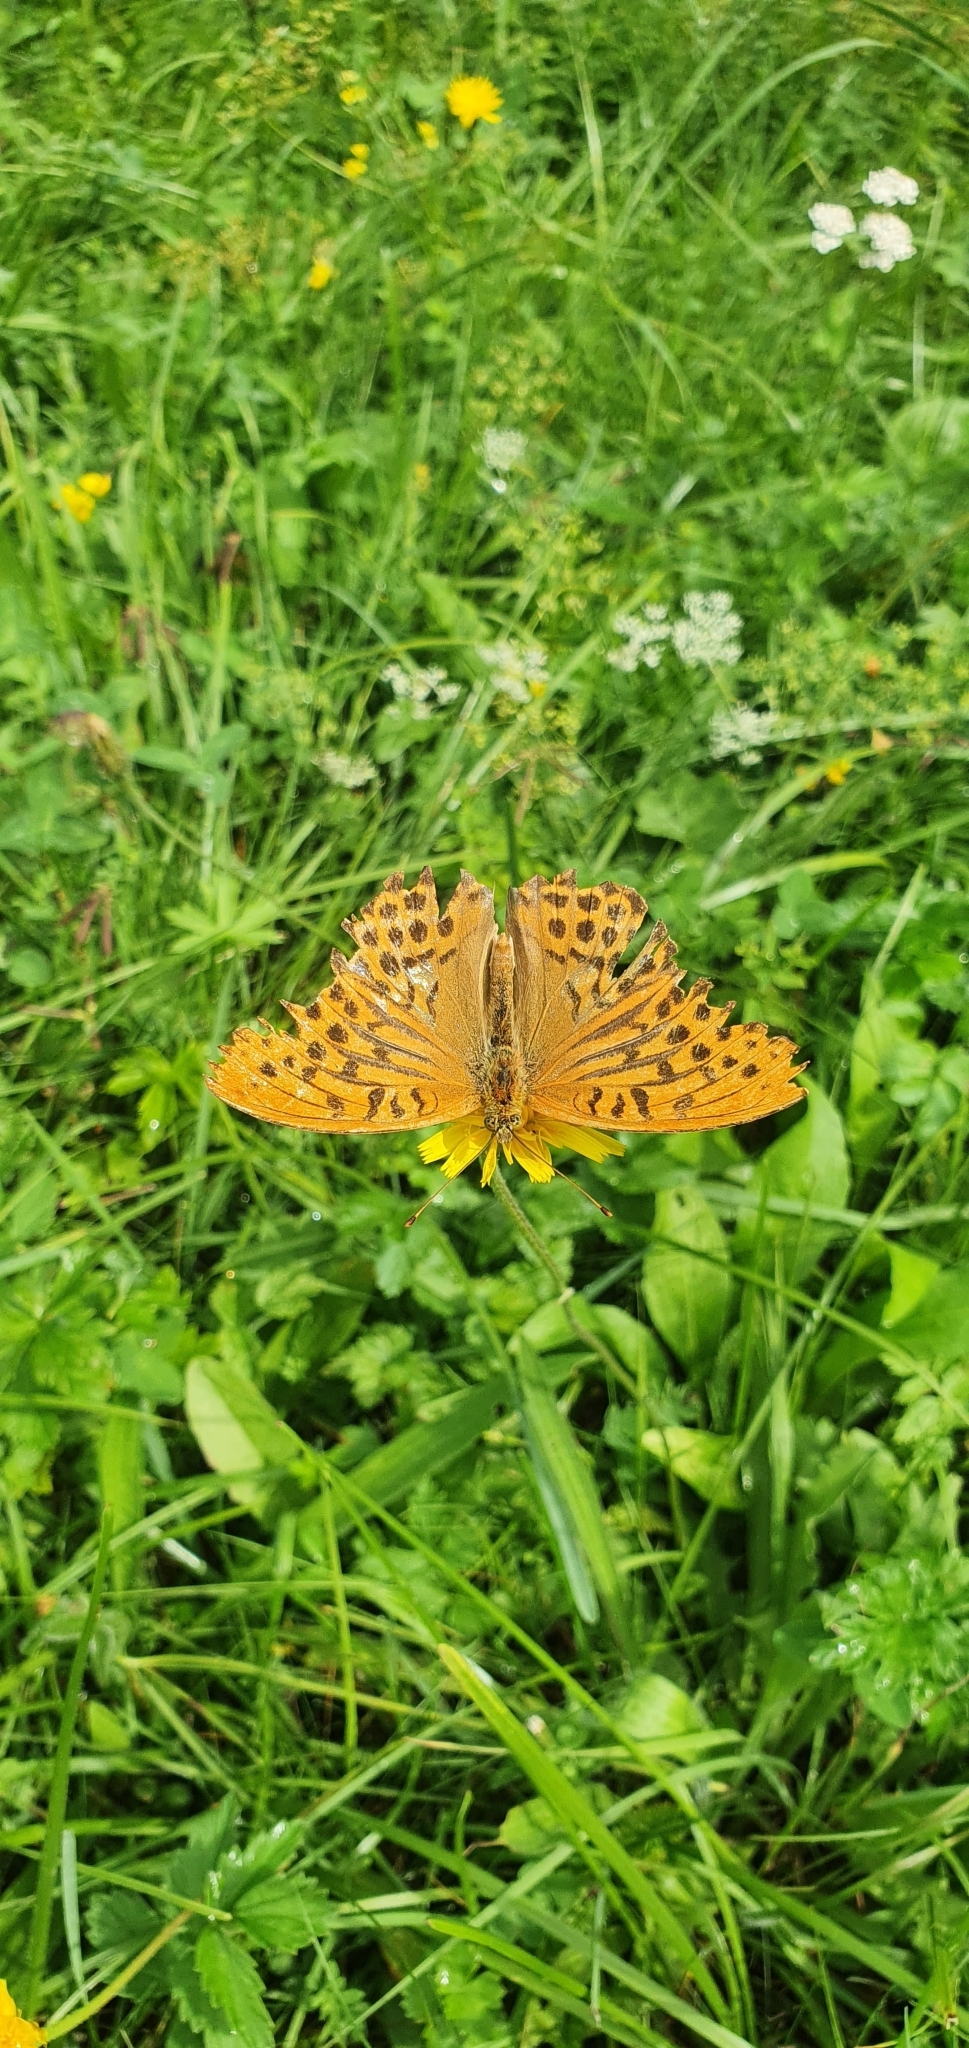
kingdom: Animalia
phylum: Arthropoda
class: Insecta
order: Lepidoptera
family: Nymphalidae
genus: Argynnis
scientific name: Argynnis paphia
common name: Silver-washed fritillary
